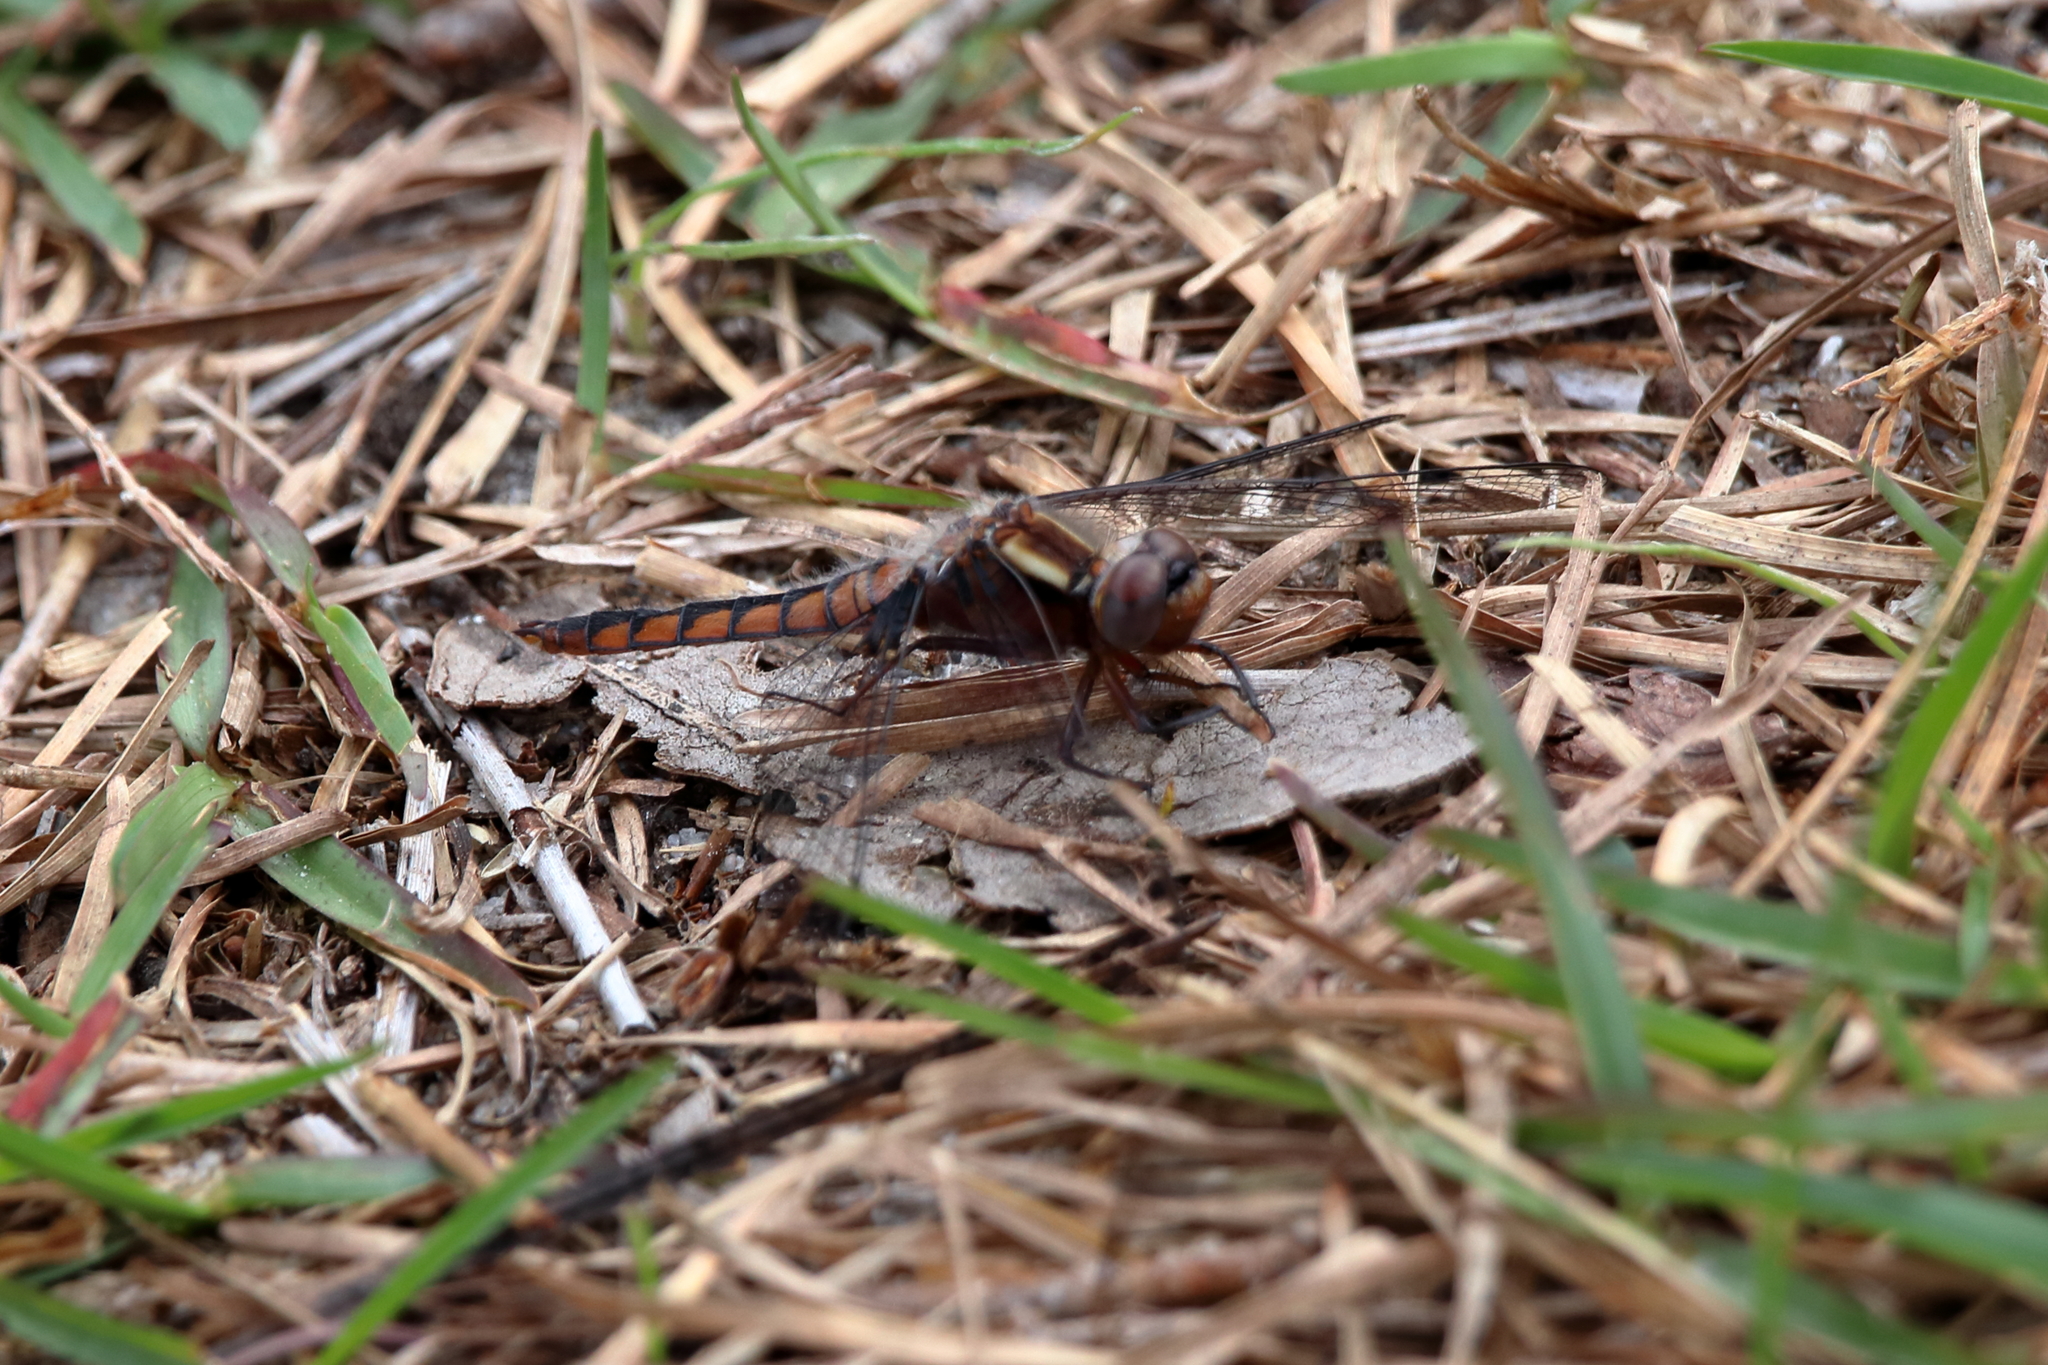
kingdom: Animalia
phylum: Arthropoda
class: Insecta
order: Odonata
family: Libellulidae
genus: Ladona
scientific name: Ladona deplanata
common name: Blue corporal
